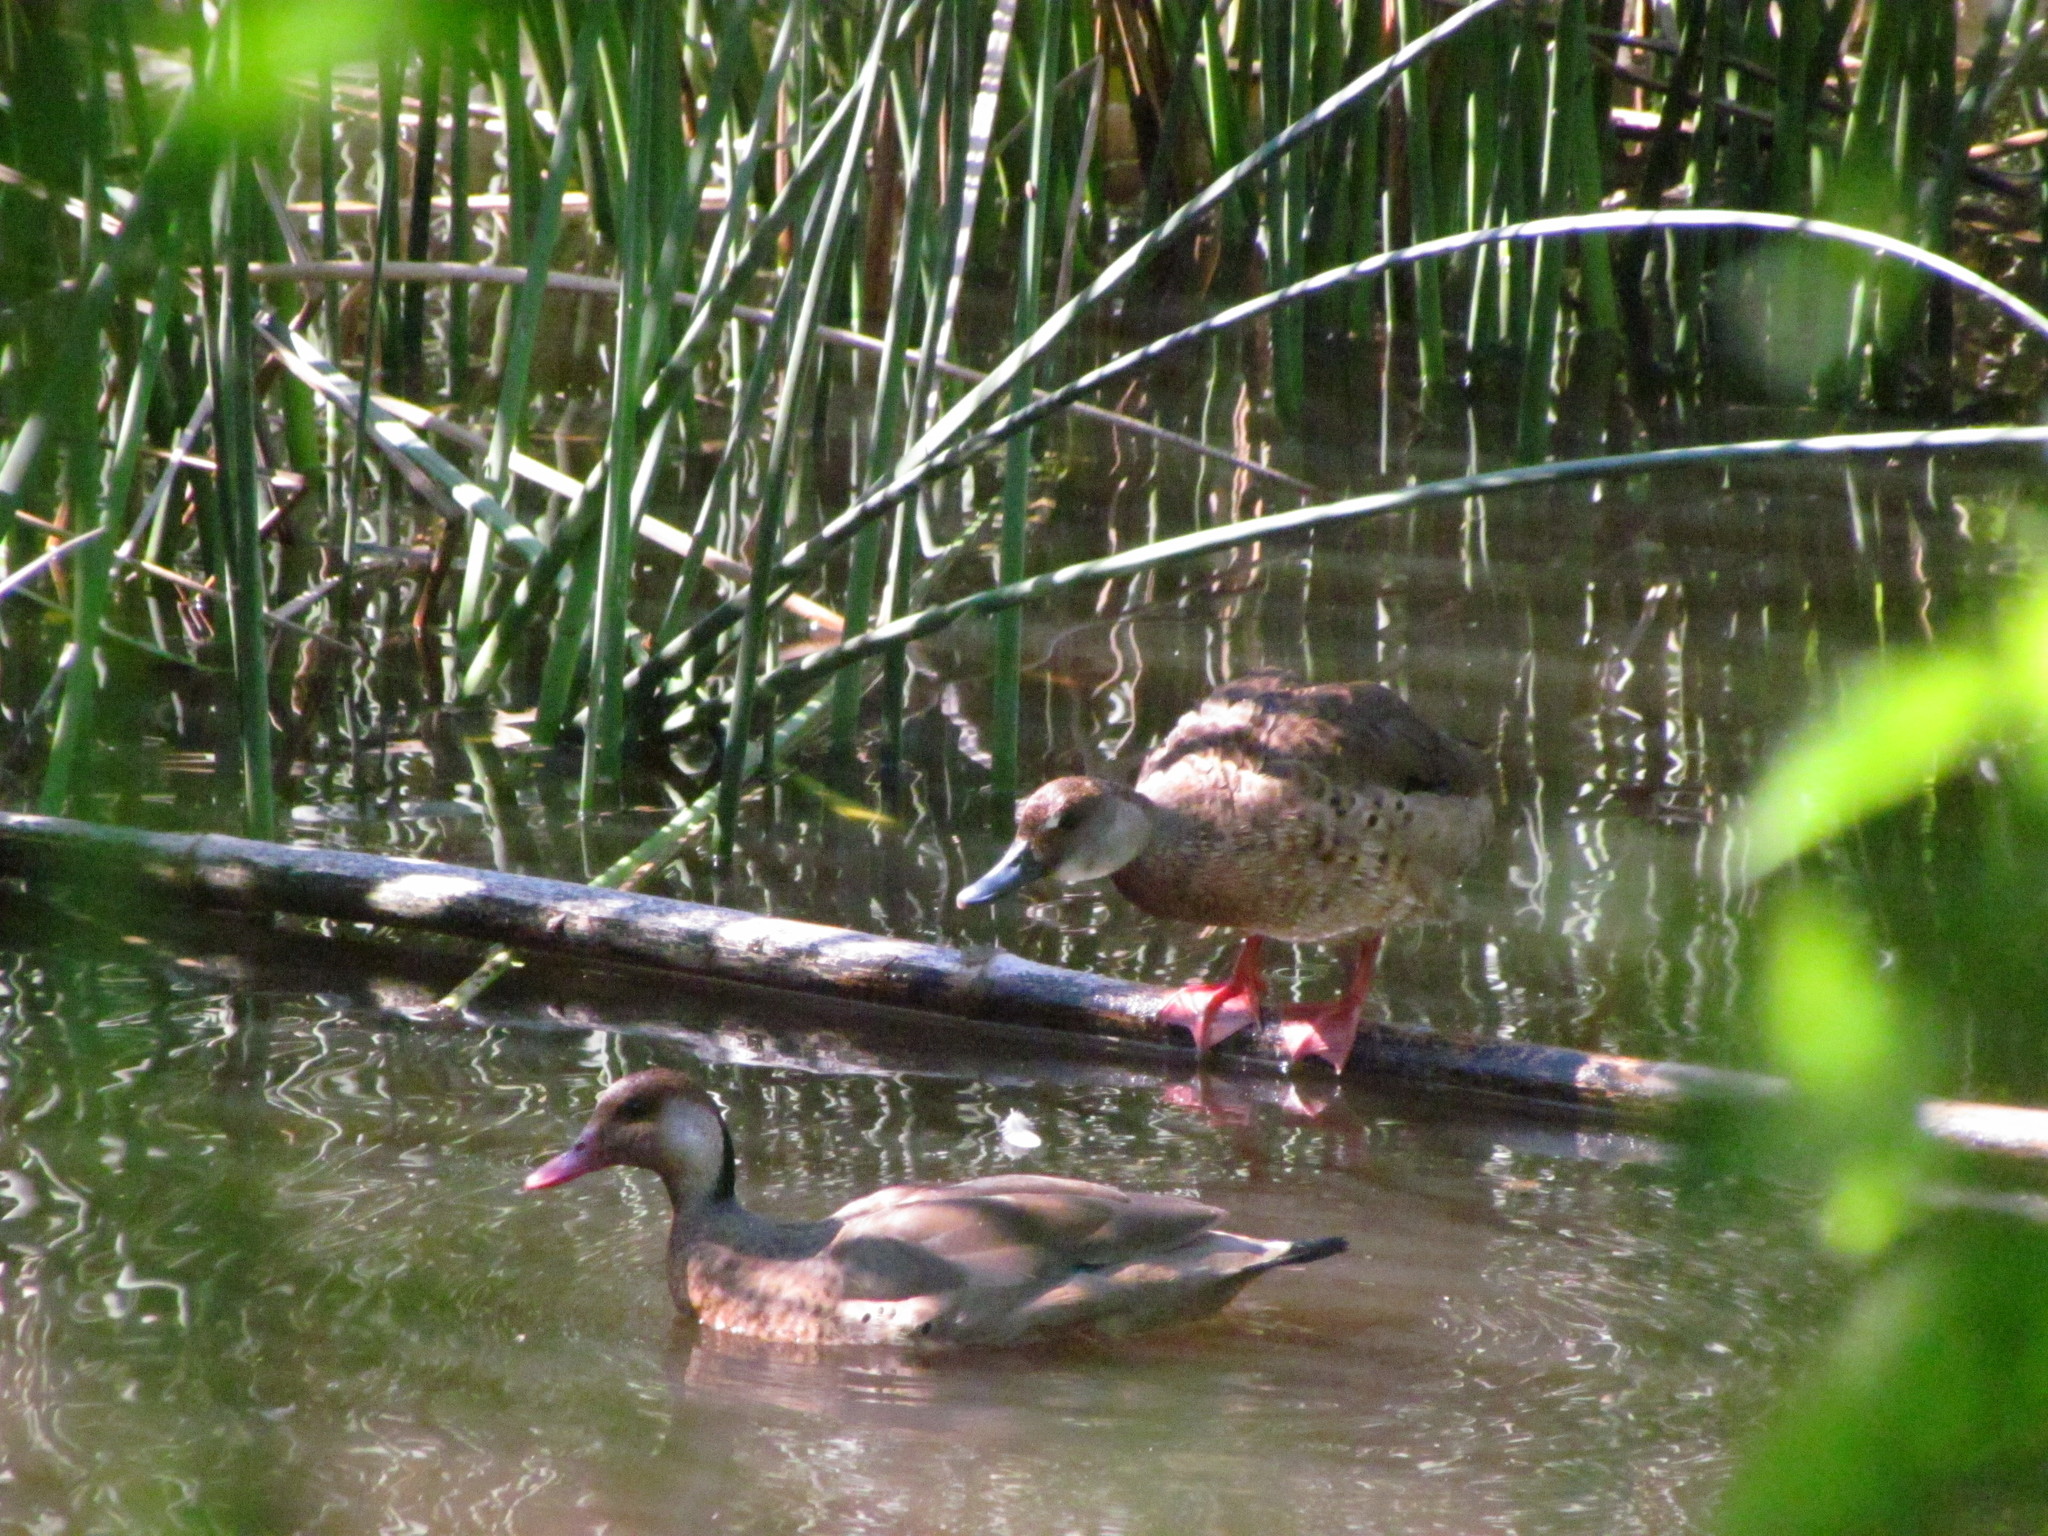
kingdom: Animalia
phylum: Chordata
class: Aves
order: Anseriformes
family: Anatidae
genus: Amazonetta
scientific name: Amazonetta brasiliensis
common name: Brazilian teal
